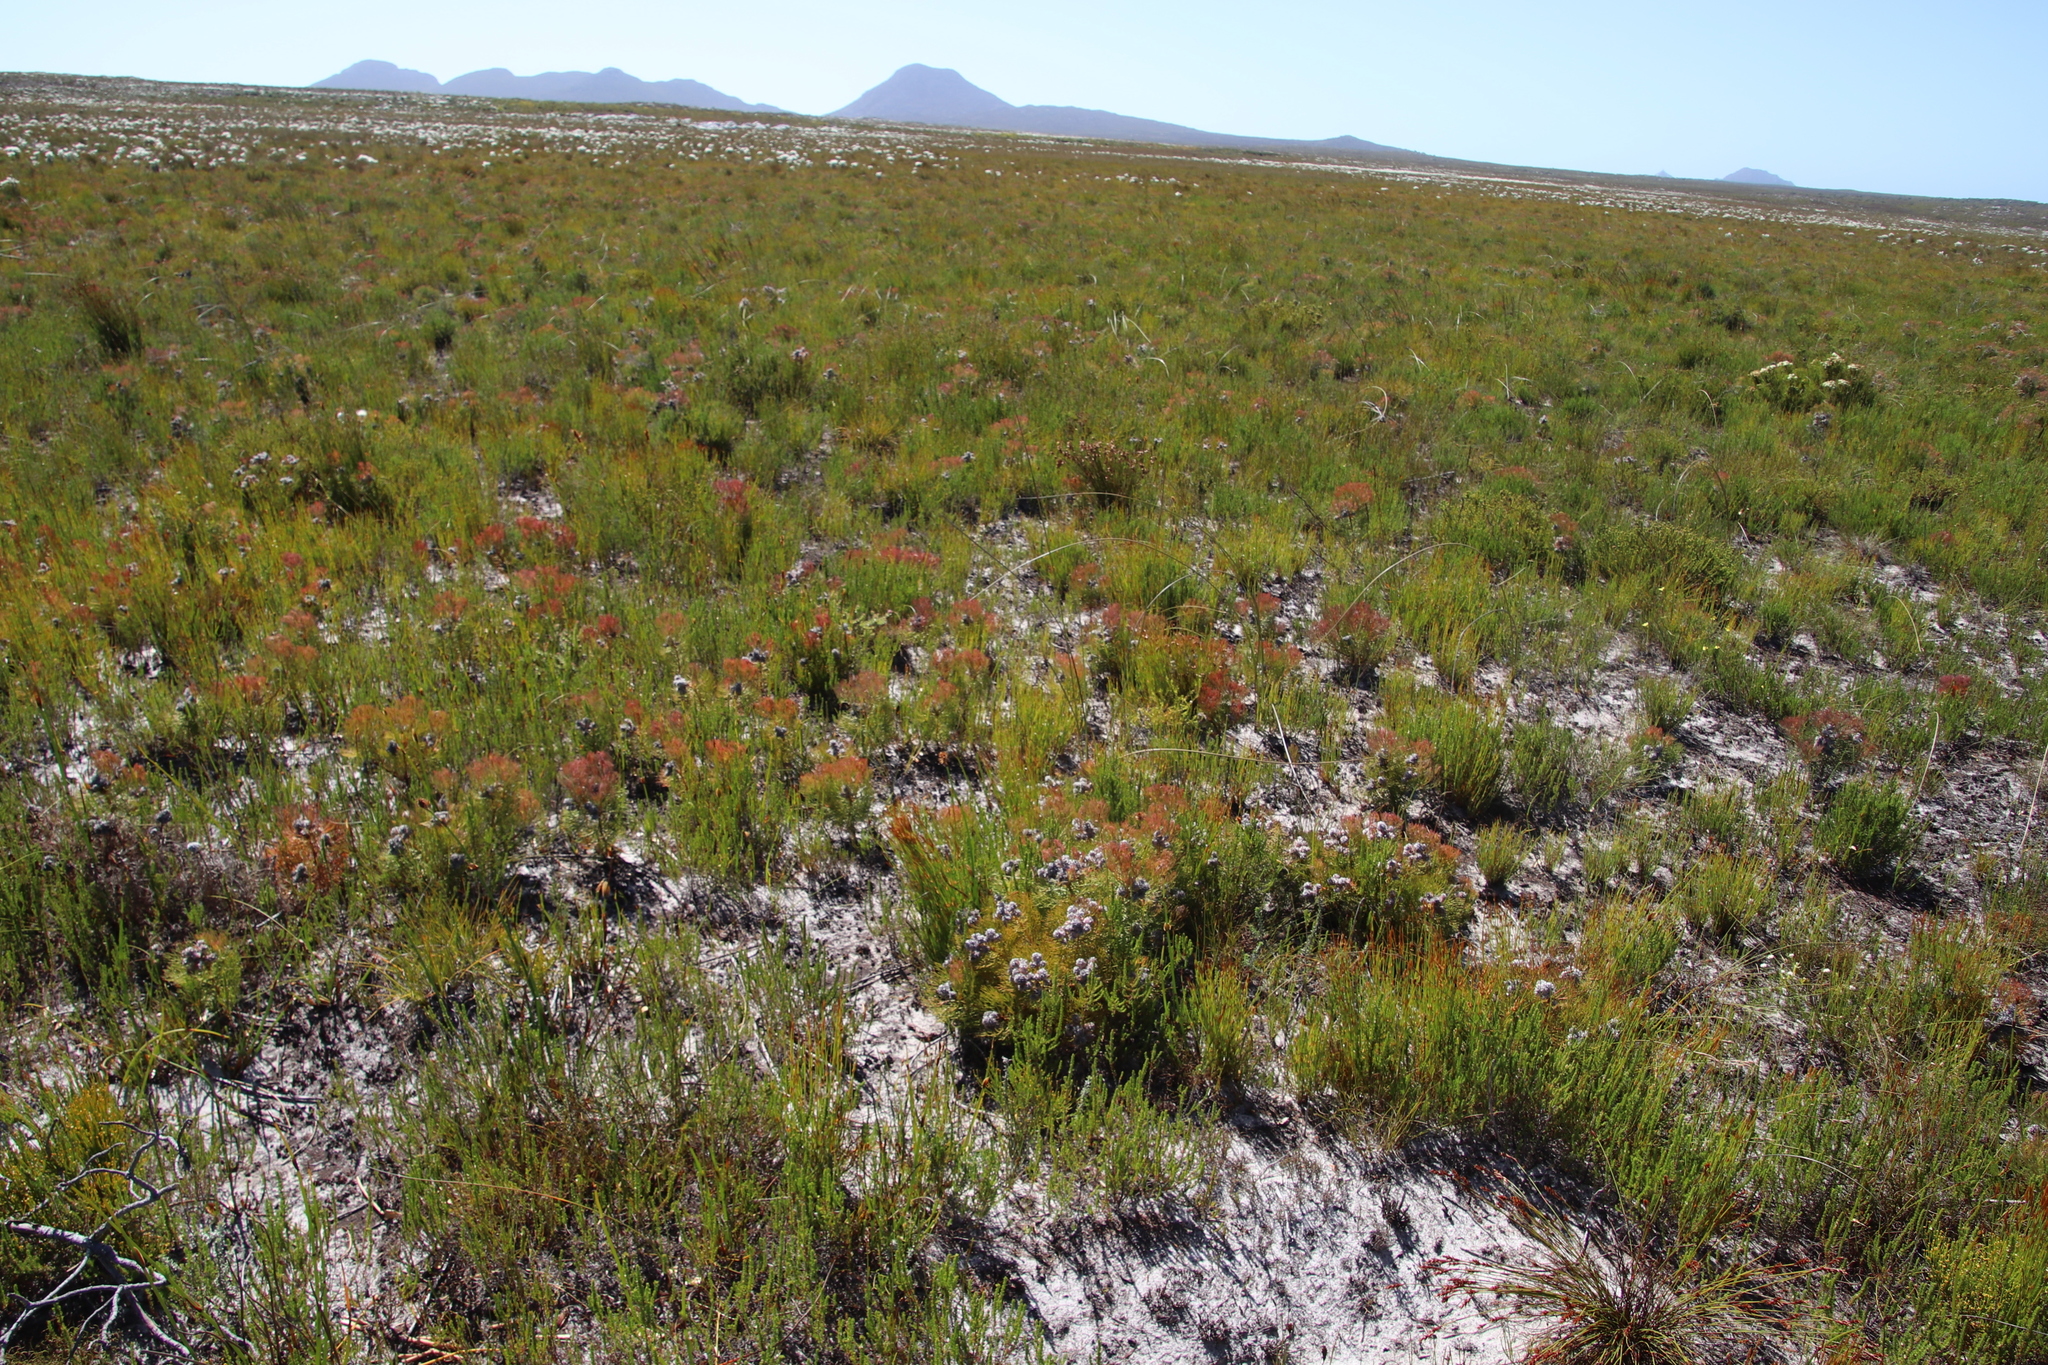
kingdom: Plantae
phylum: Tracheophyta
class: Magnoliopsida
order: Proteales
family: Proteaceae
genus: Serruria
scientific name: Serruria glomerata
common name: Cluster spiderhead
